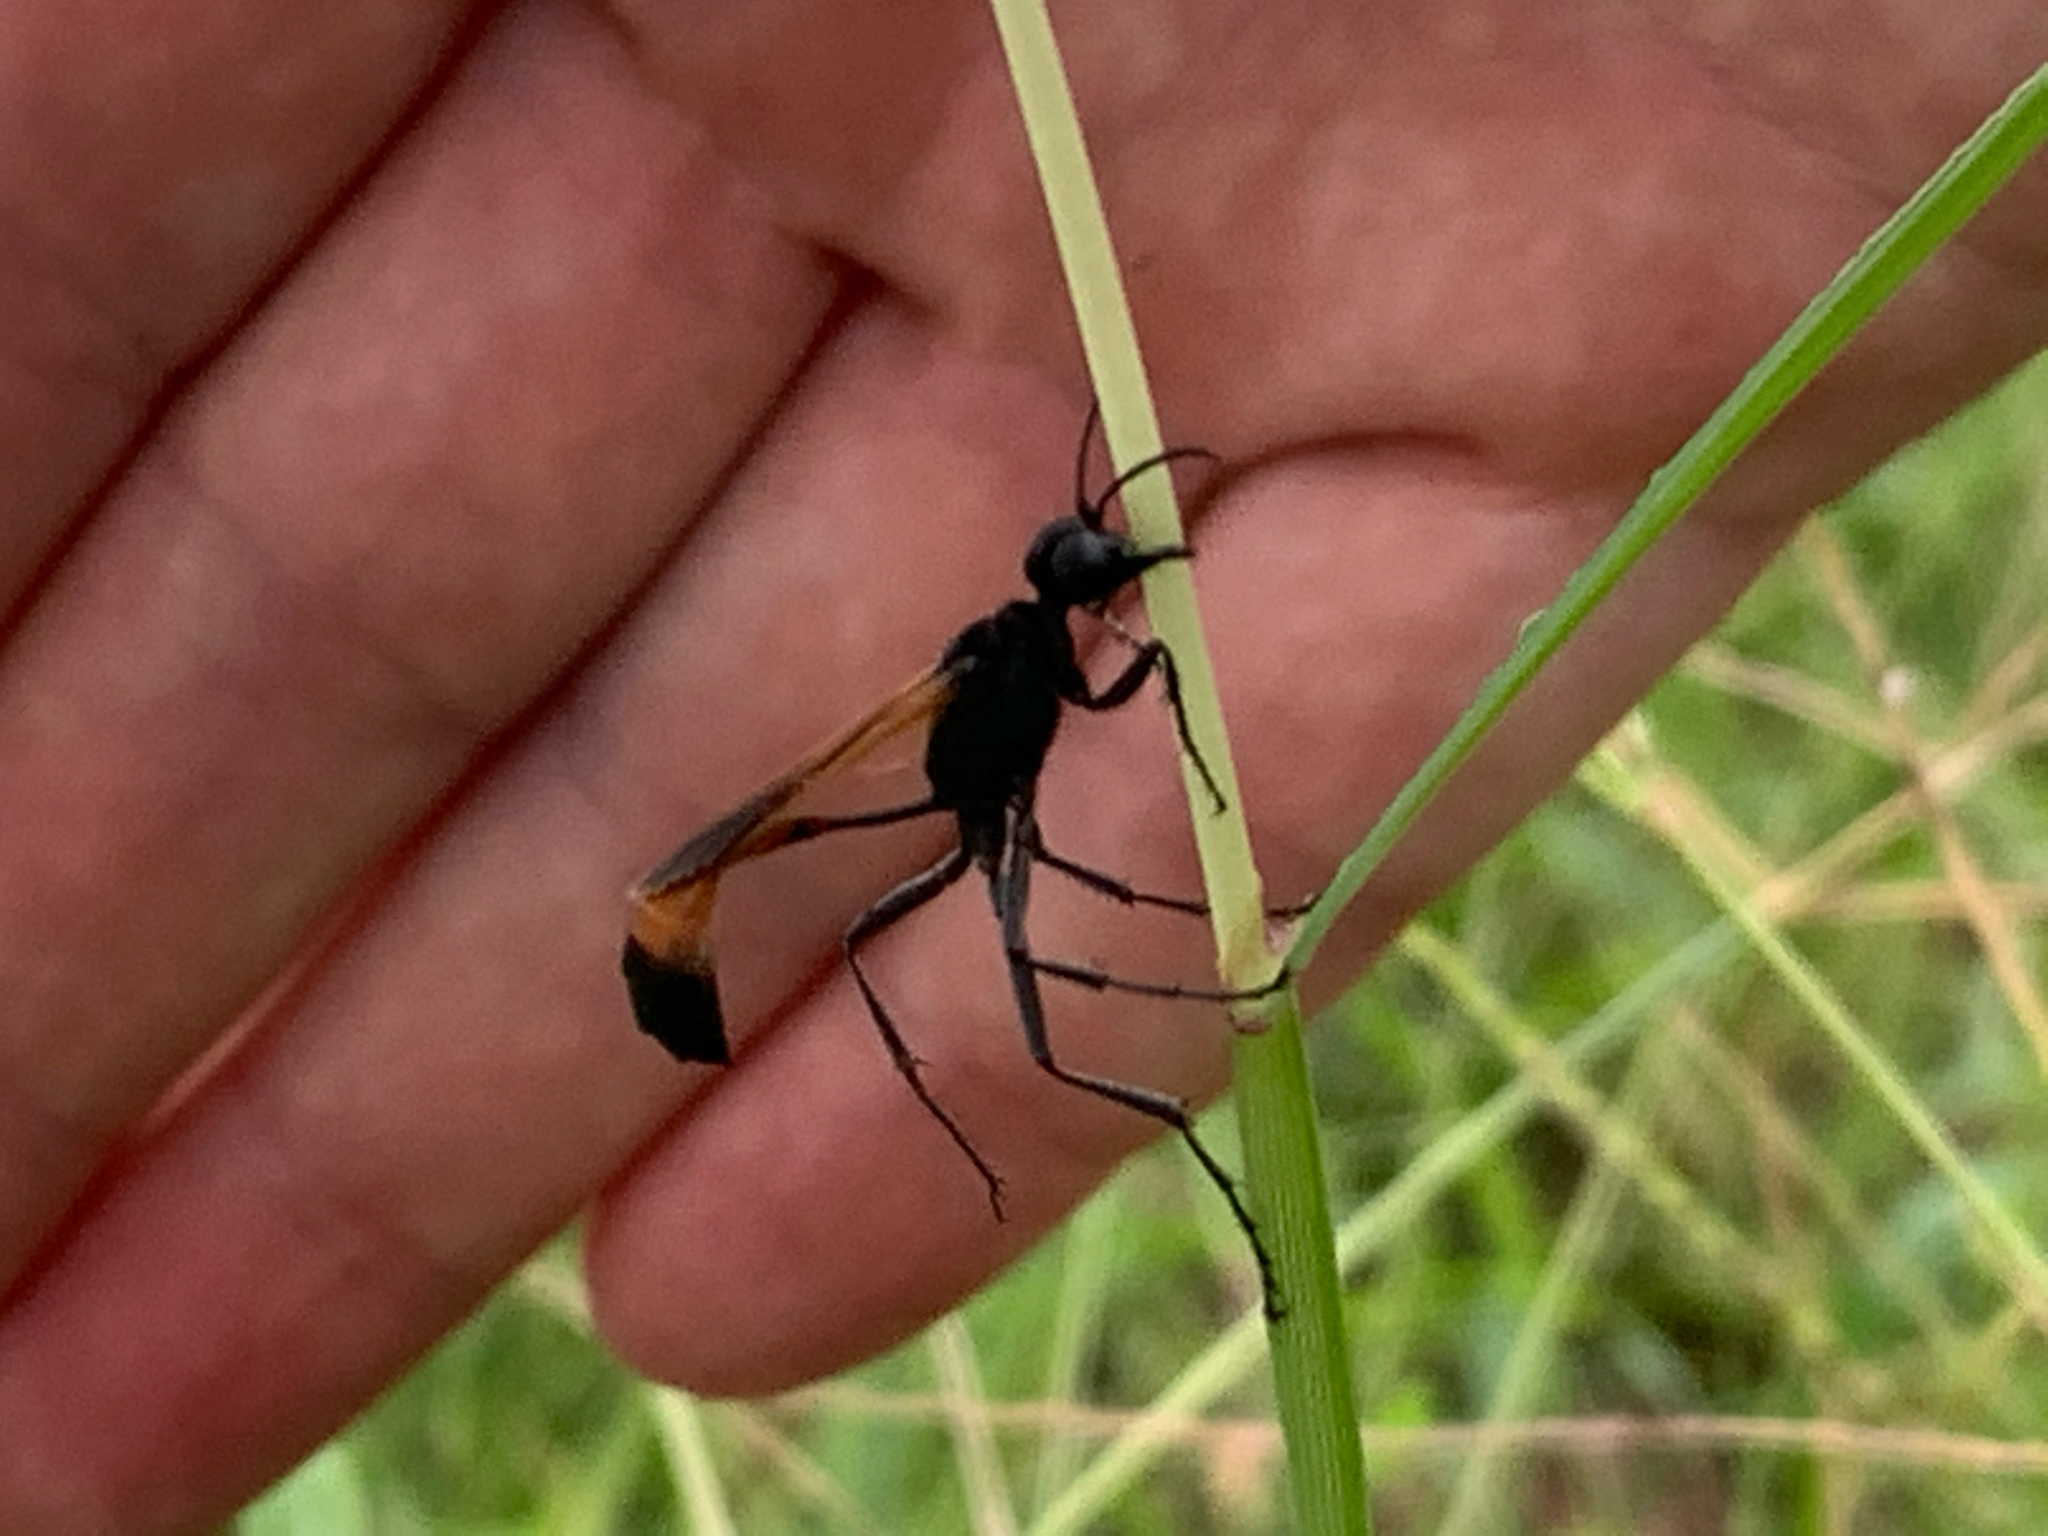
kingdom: Animalia
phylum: Arthropoda
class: Insecta
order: Hymenoptera
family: Sphecidae
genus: Ammophila
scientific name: Ammophila pictipennis
